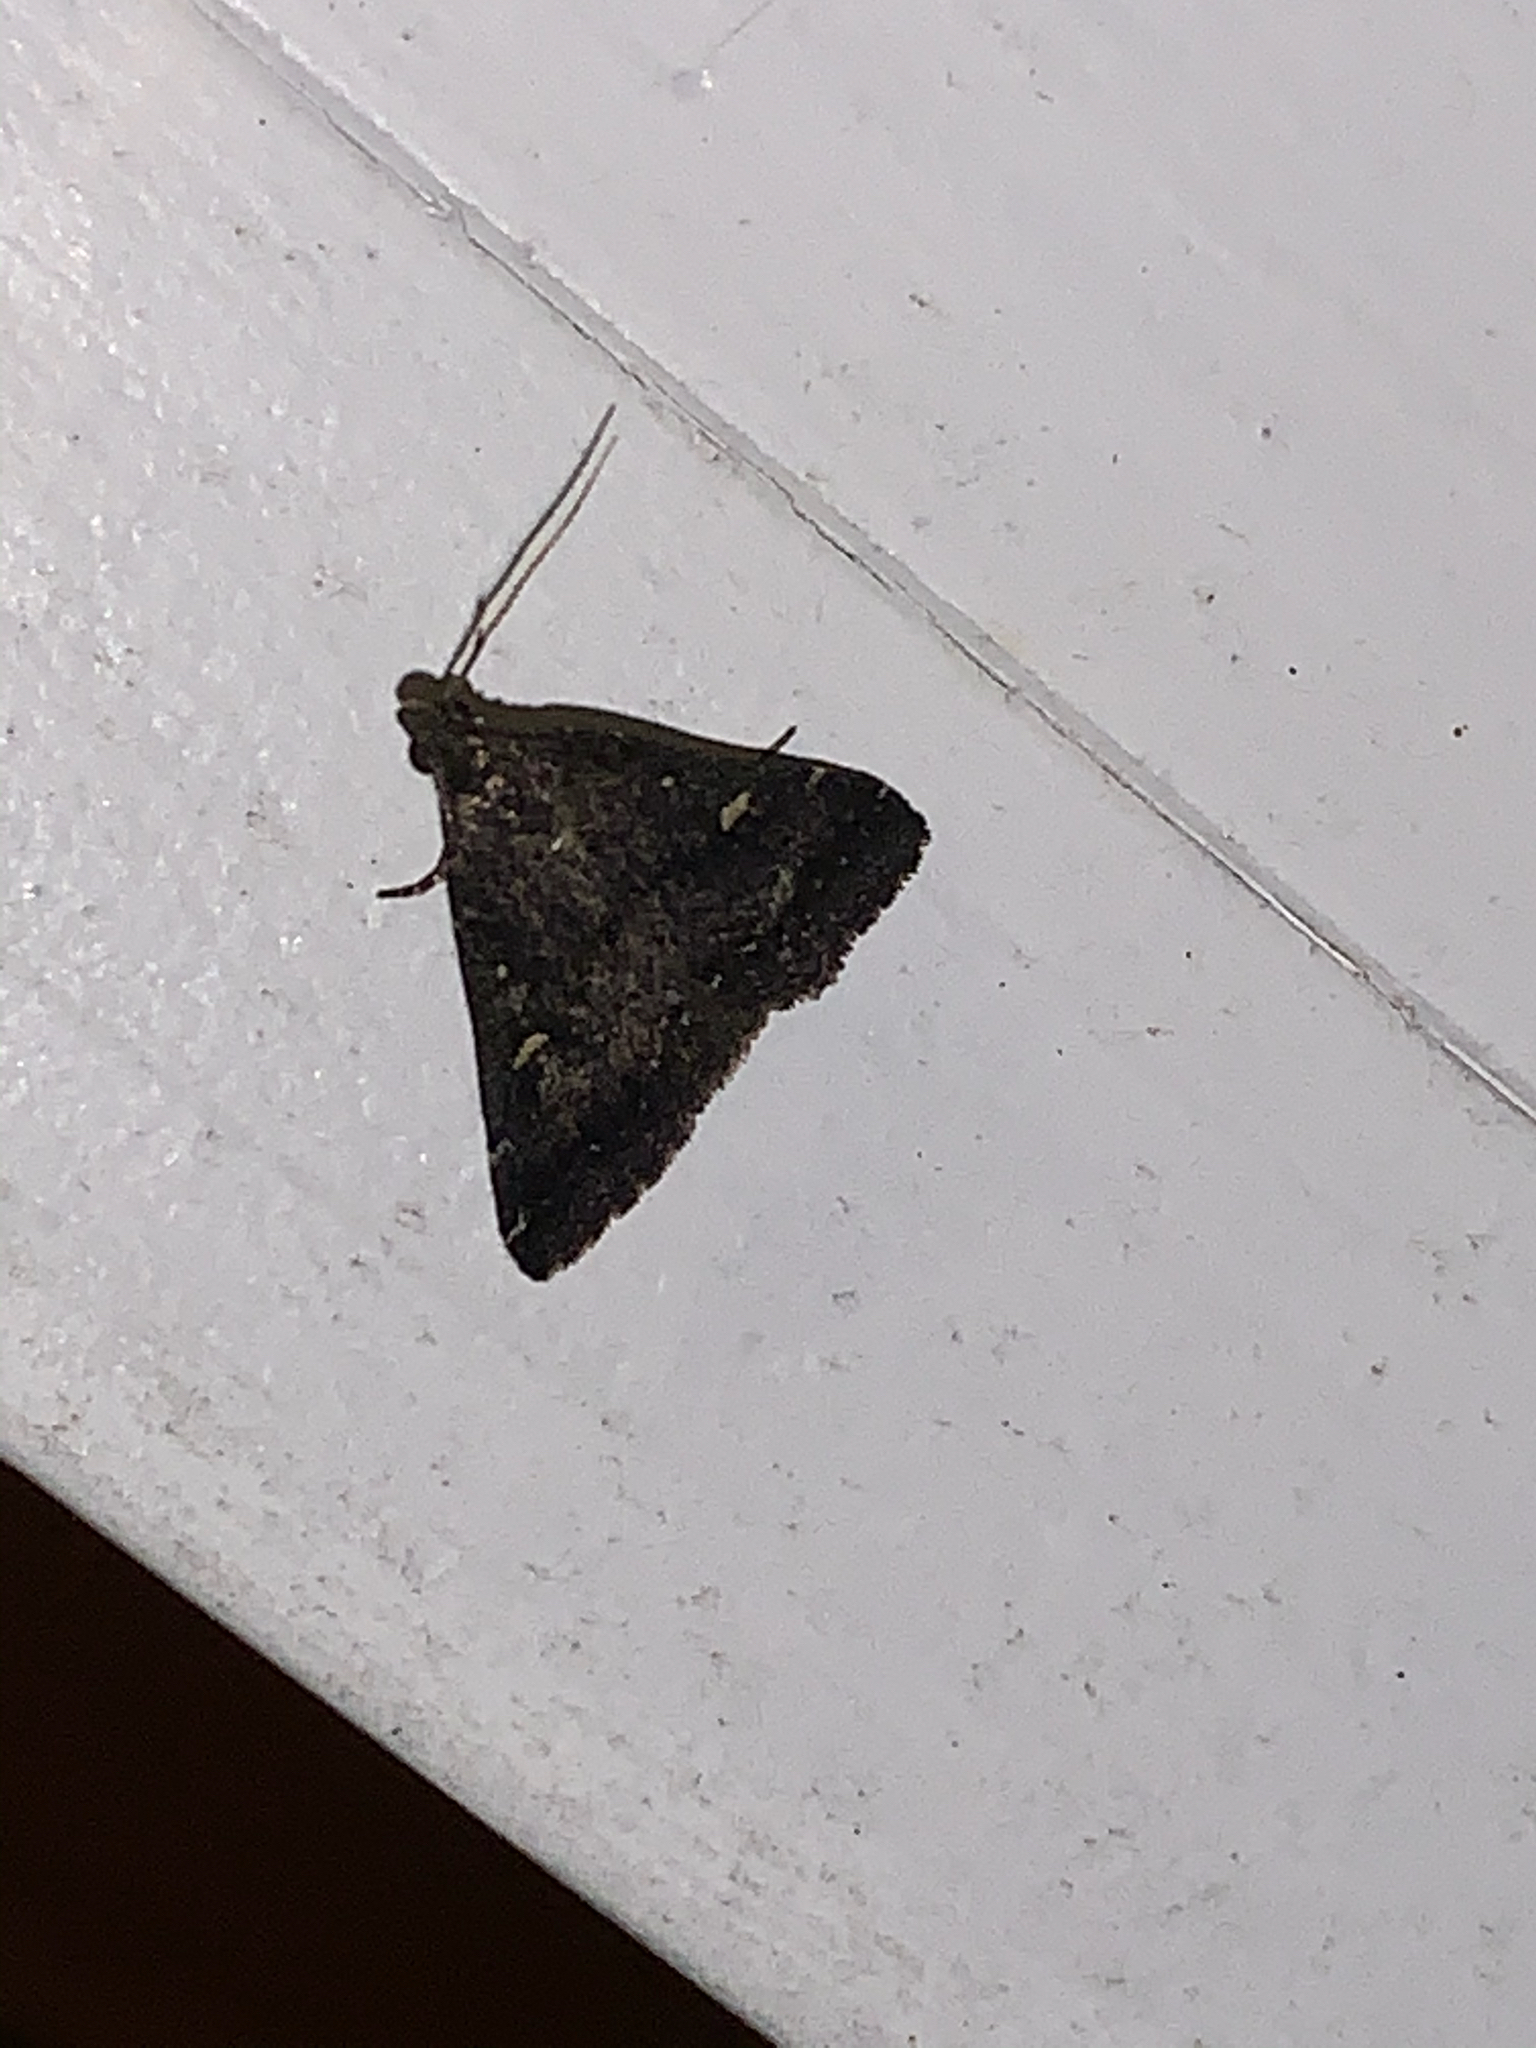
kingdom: Animalia
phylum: Arthropoda
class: Insecta
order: Lepidoptera
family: Erebidae
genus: Tetanolita
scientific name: Tetanolita mynesalis
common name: Smoky tetanolita moth
